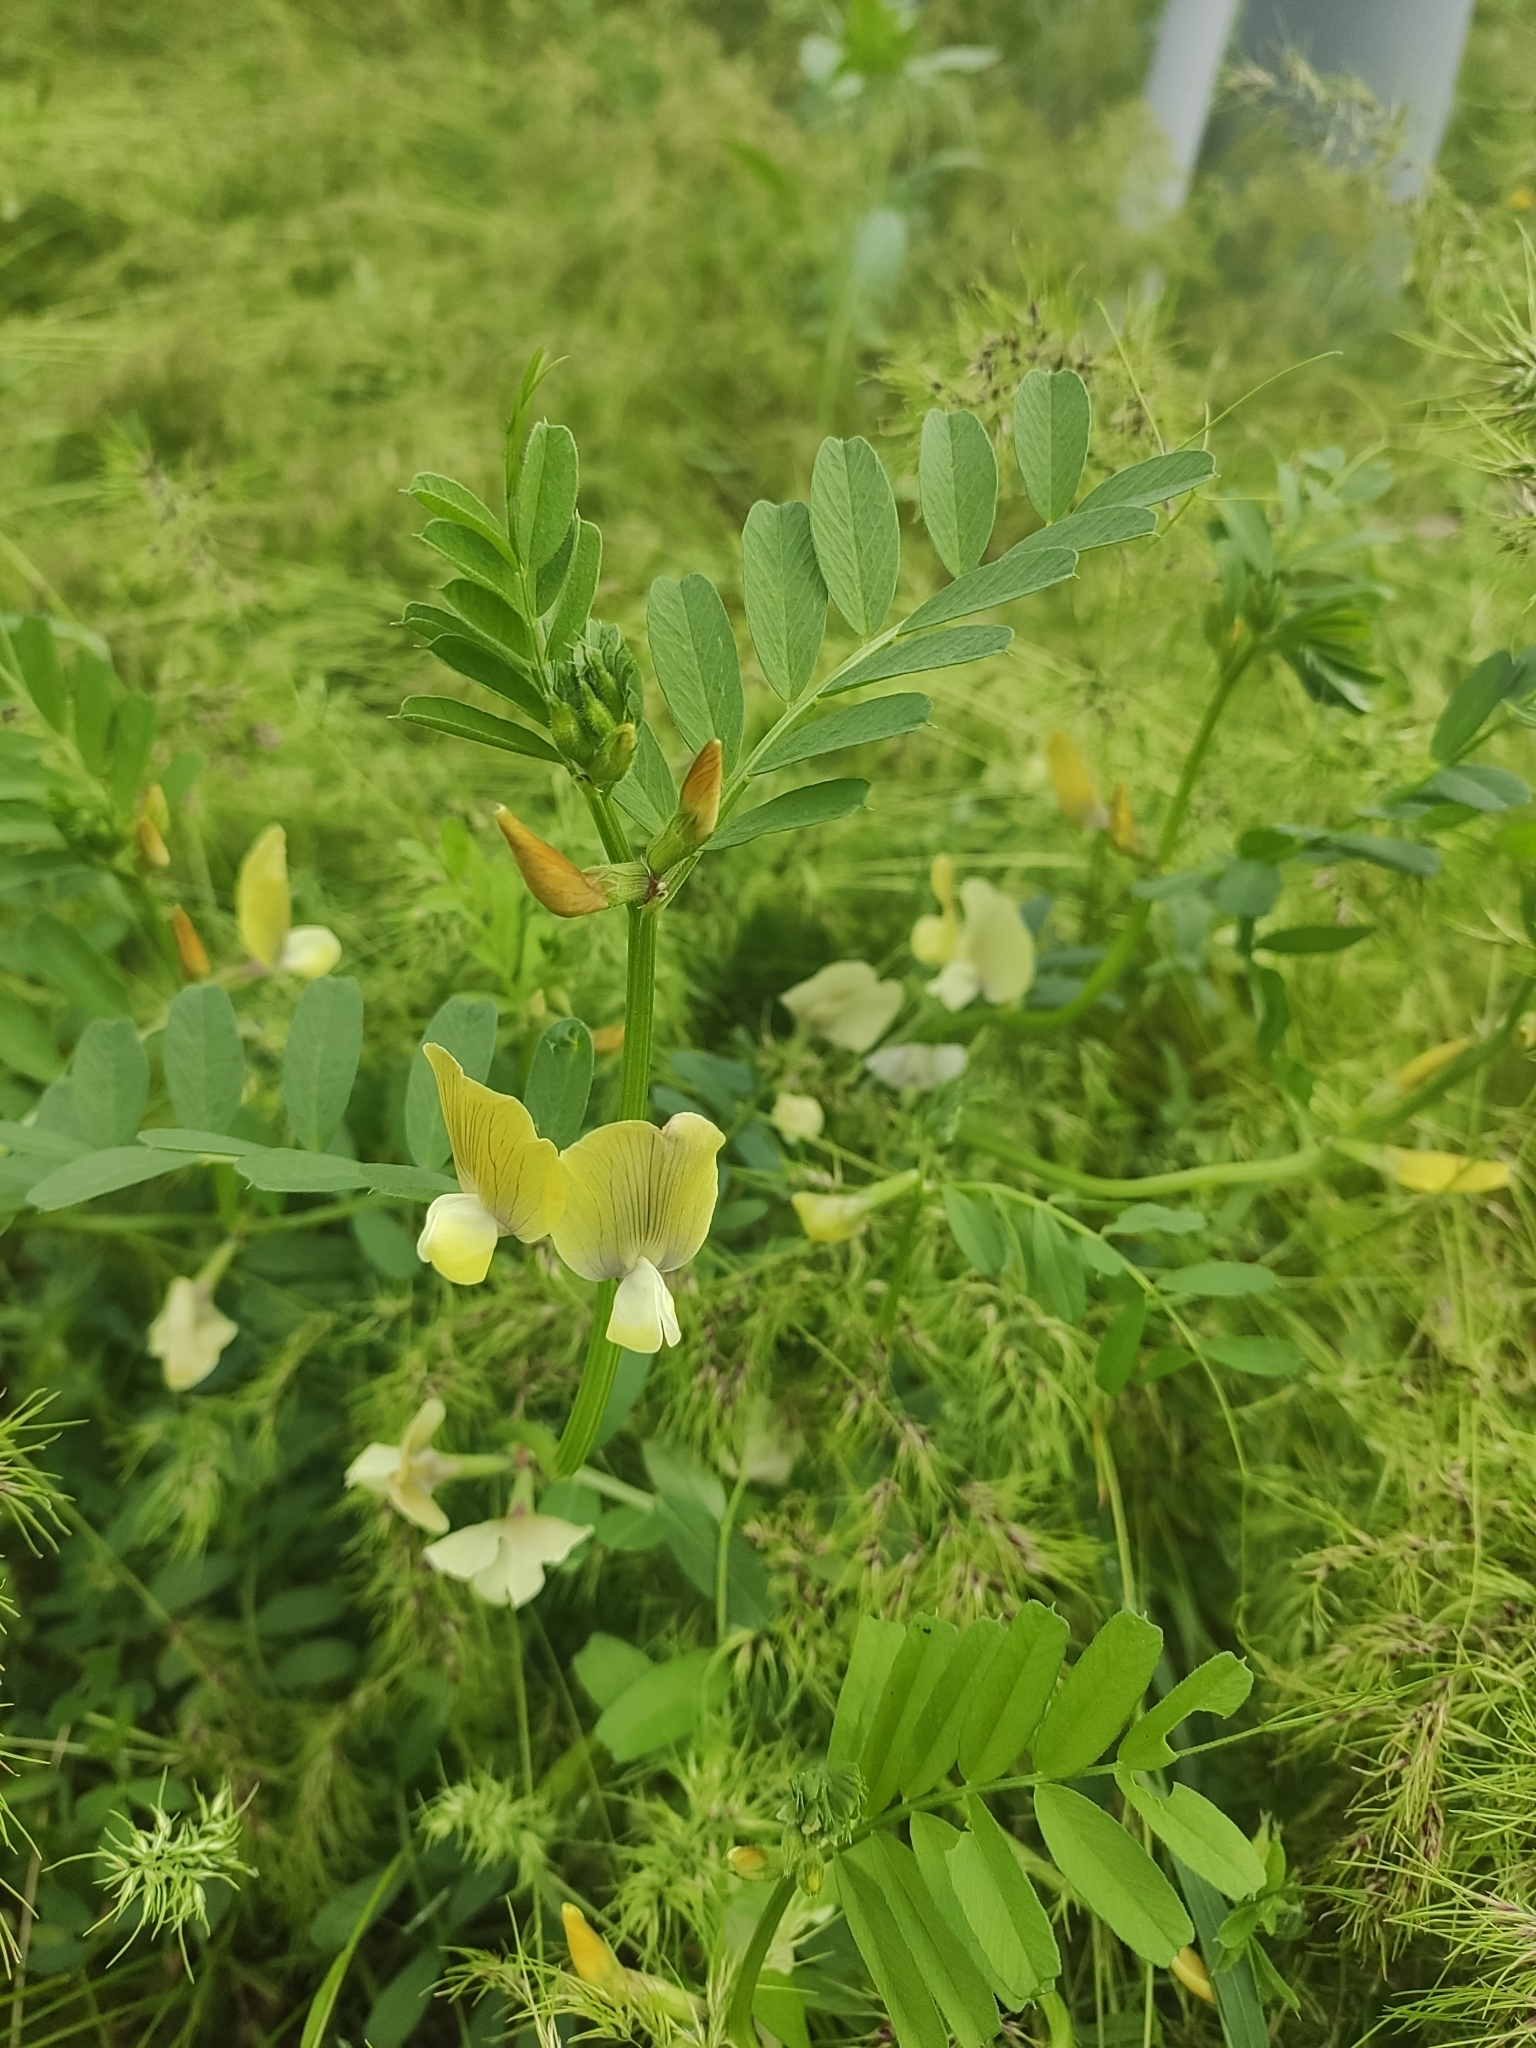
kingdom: Plantae
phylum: Tracheophyta
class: Magnoliopsida
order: Fabales
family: Fabaceae
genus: Vicia
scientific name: Vicia grandiflora
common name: Large yellow vetch
